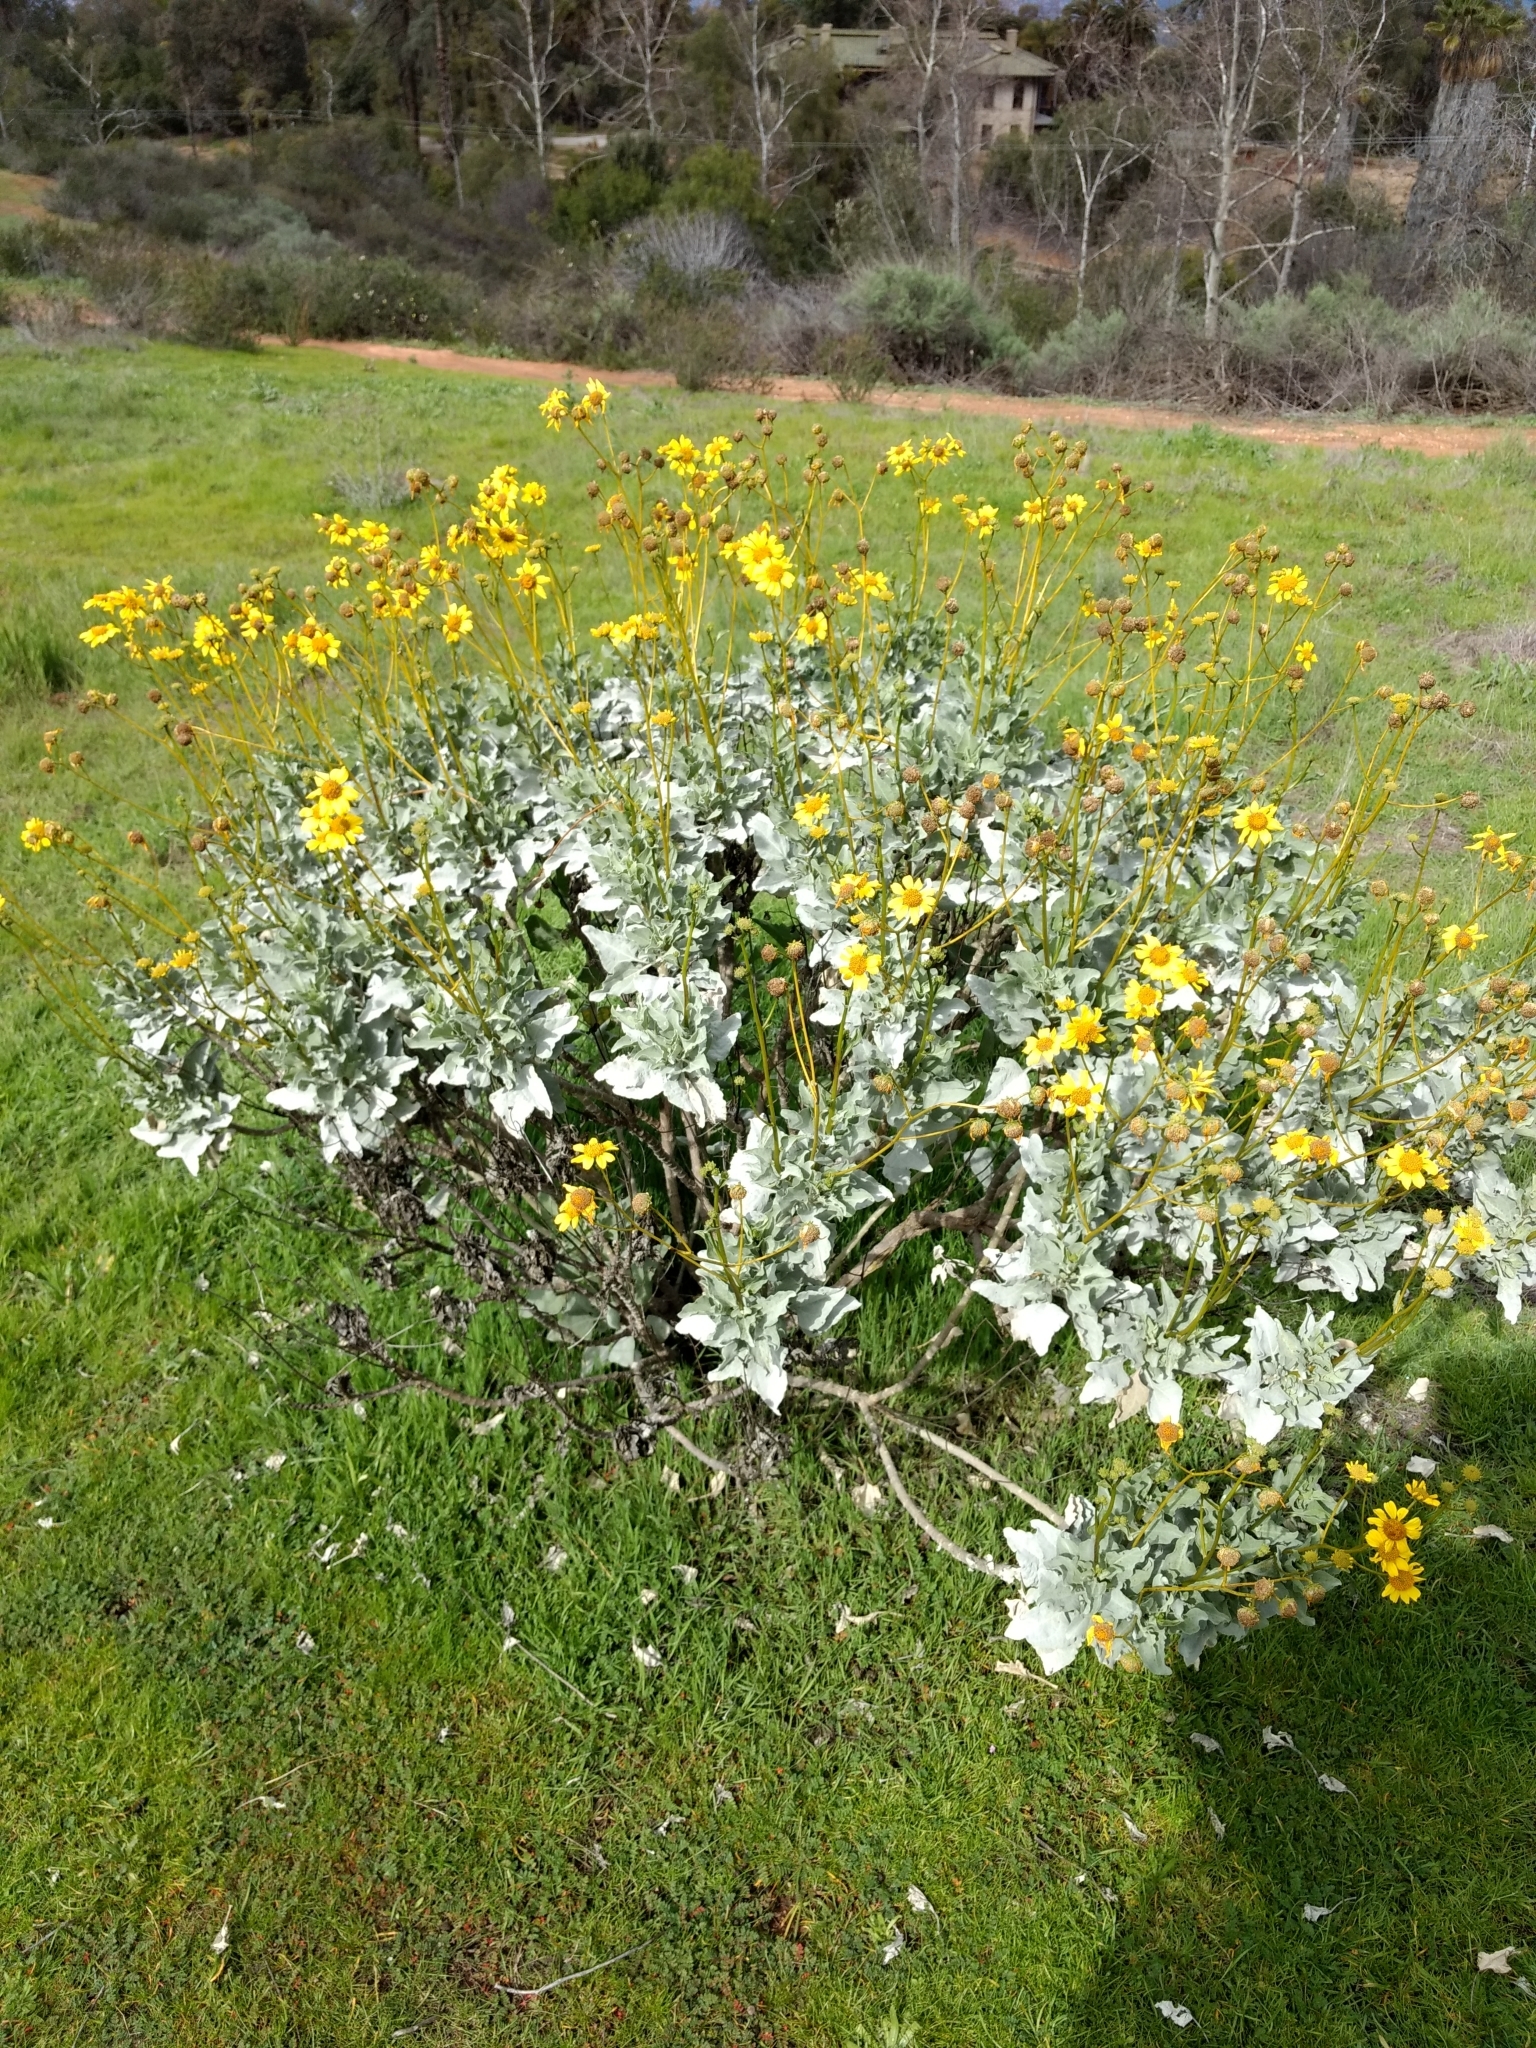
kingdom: Plantae
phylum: Tracheophyta
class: Magnoliopsida
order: Asterales
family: Asteraceae
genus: Encelia
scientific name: Encelia farinosa
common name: Brittlebush
